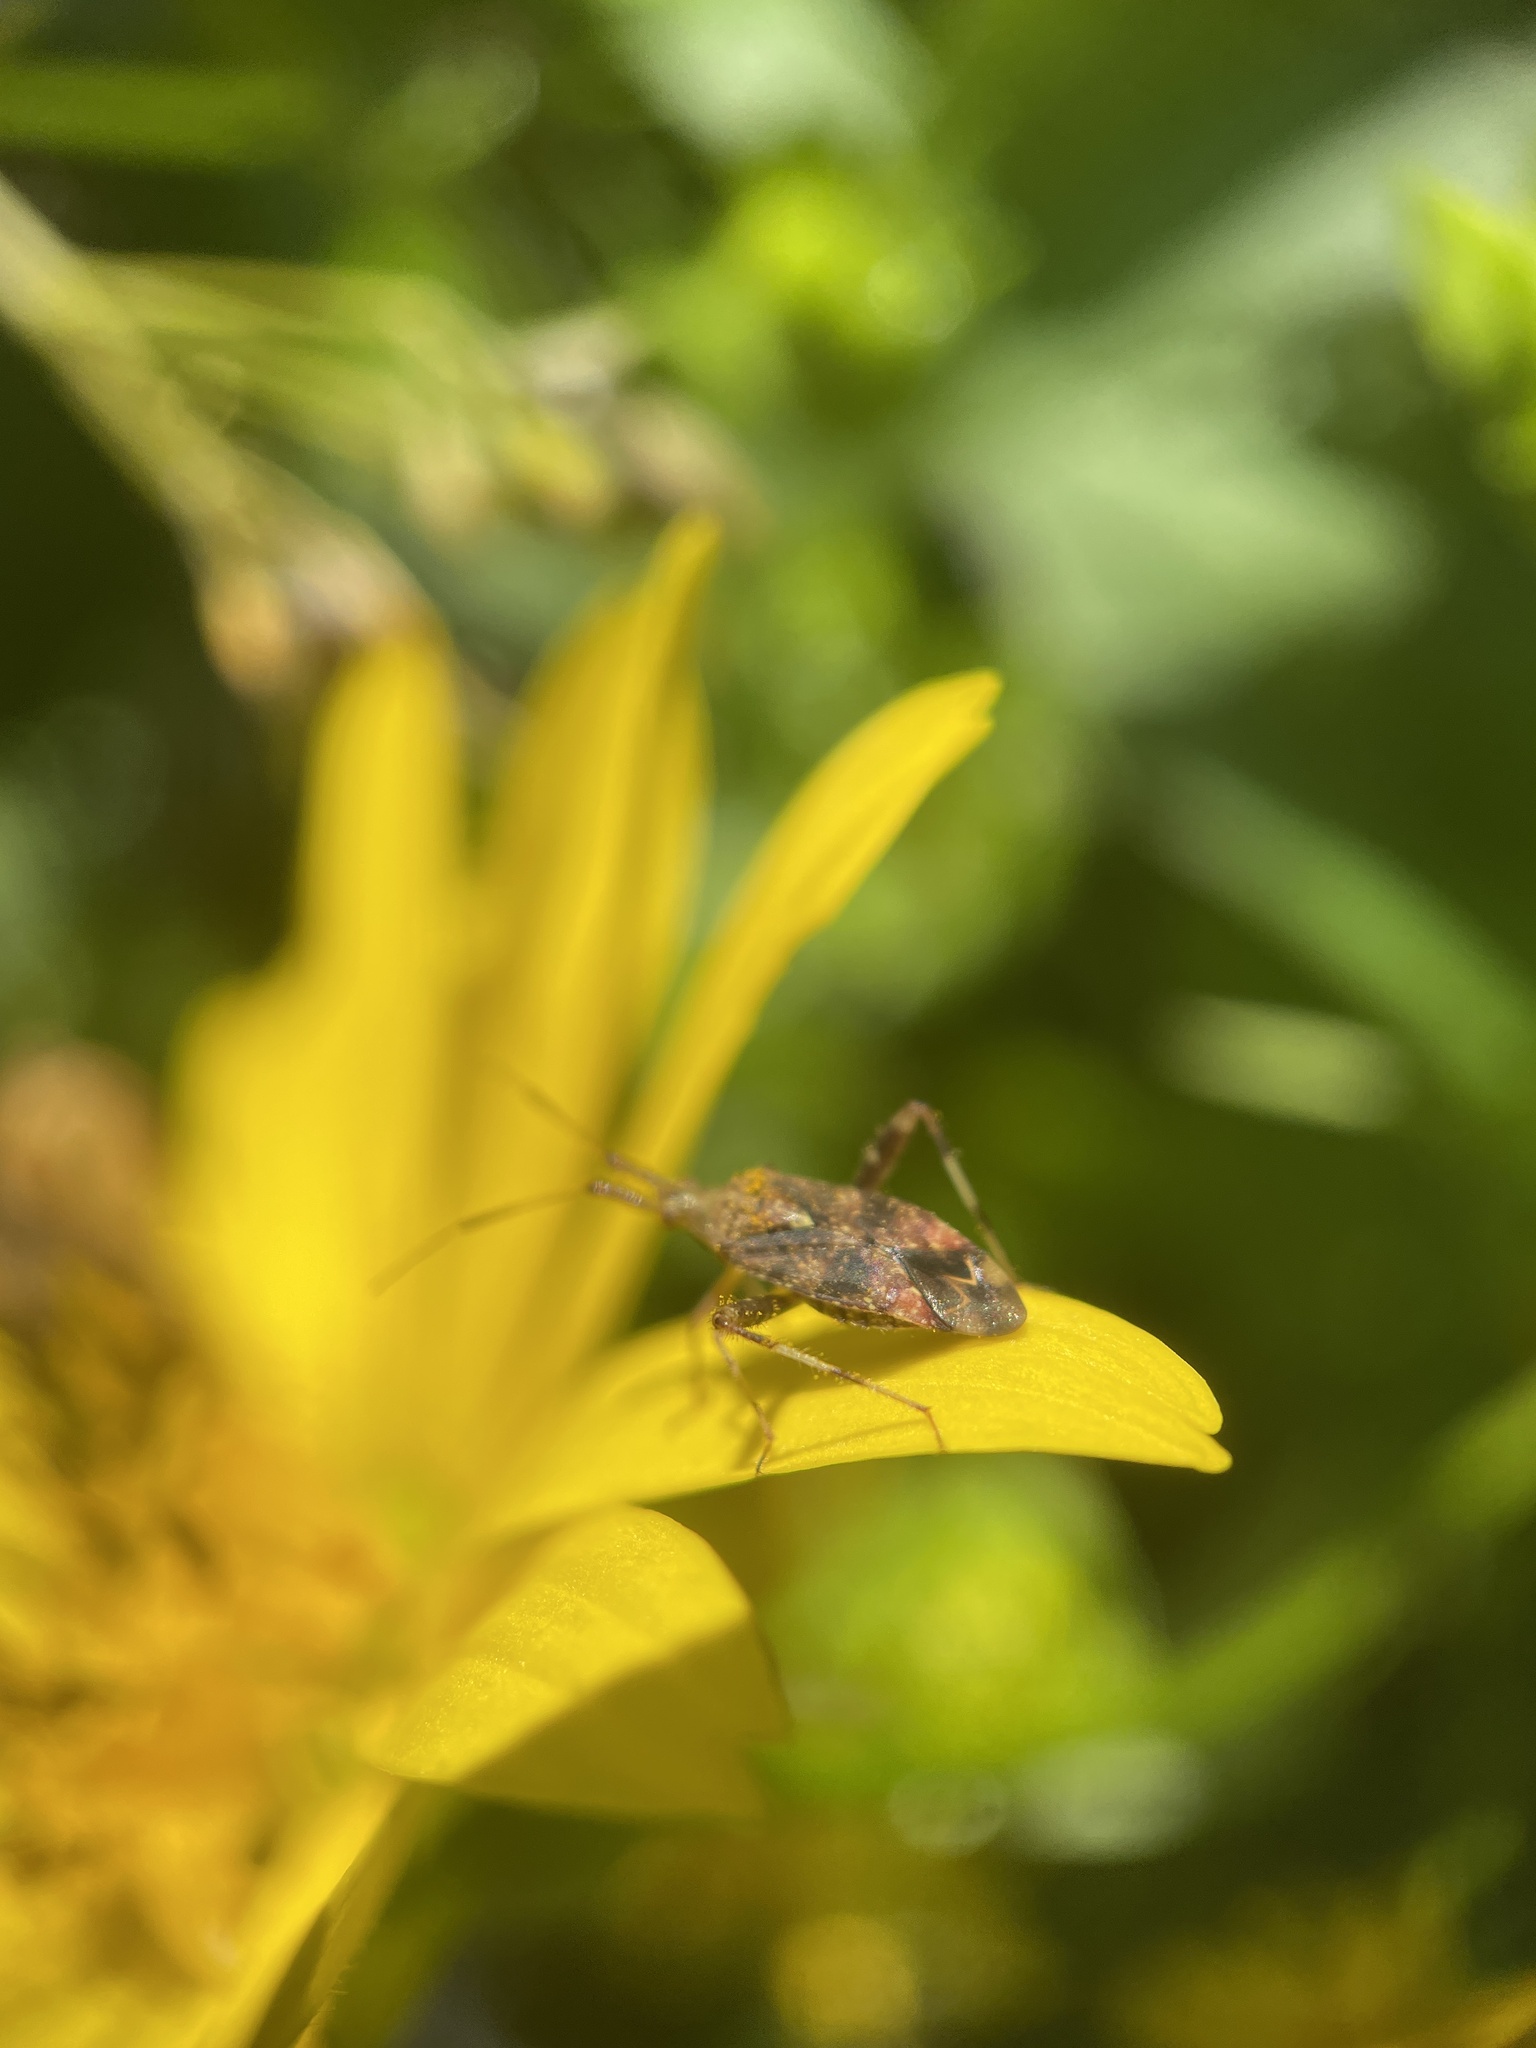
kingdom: Animalia
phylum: Arthropoda
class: Insecta
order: Hemiptera
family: Miridae
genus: Neurocolpus
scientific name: Neurocolpus nubilus
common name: Clouded plant bug
